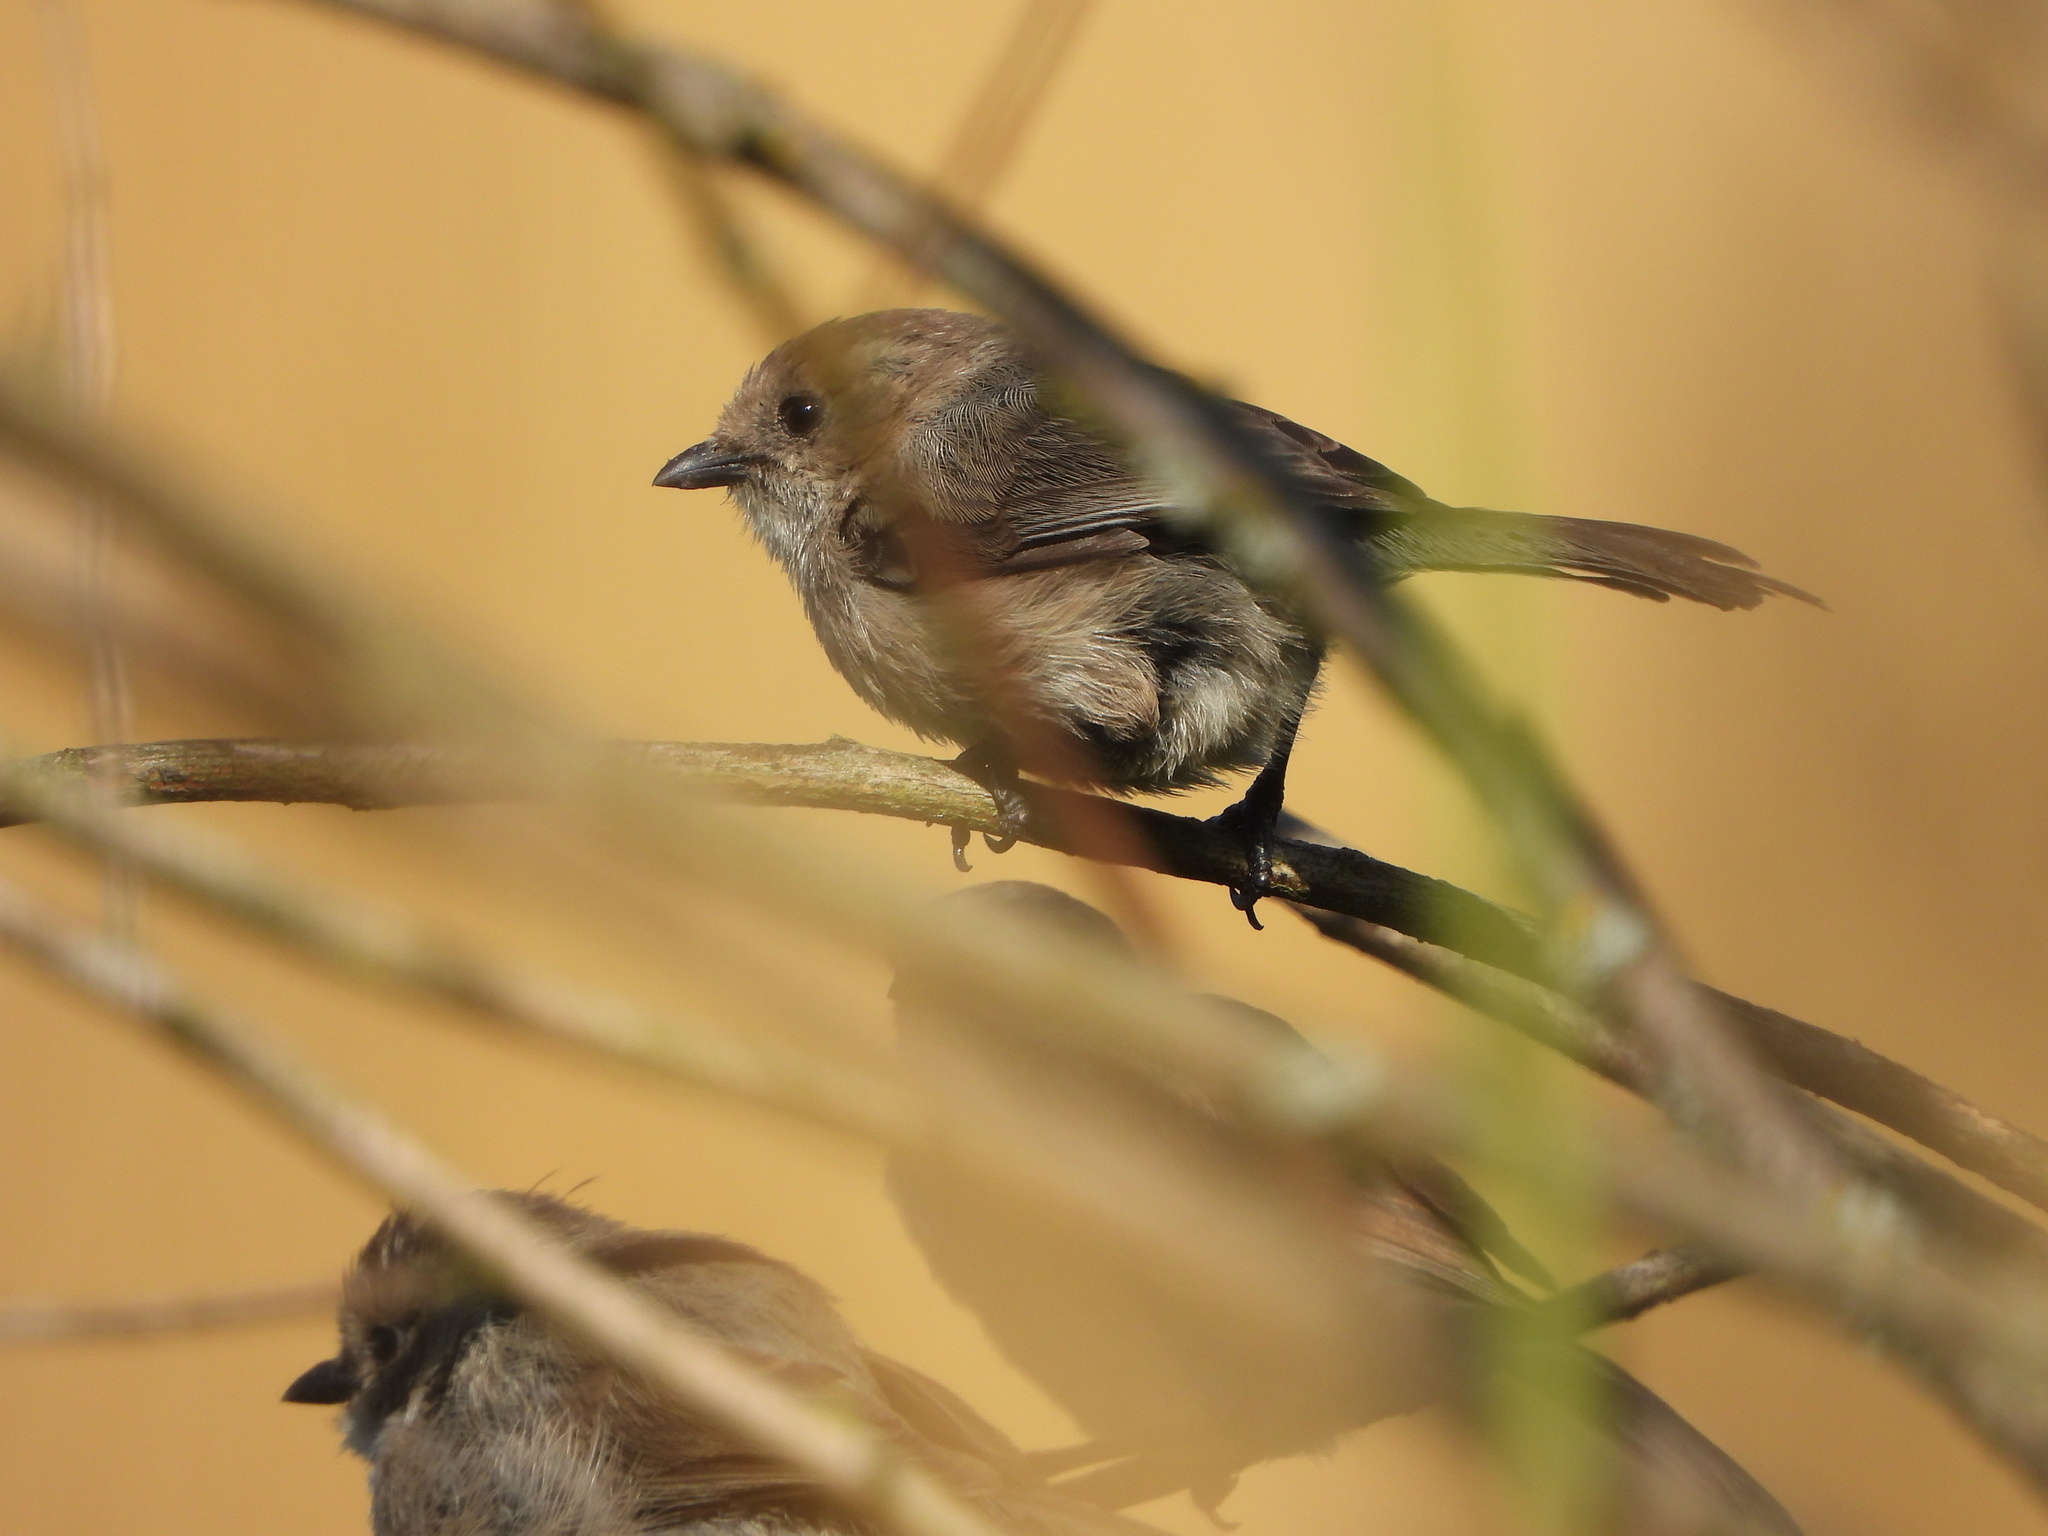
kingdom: Animalia
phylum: Chordata
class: Aves
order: Passeriformes
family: Aegithalidae
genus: Psaltriparus
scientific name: Psaltriparus minimus
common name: American bushtit
